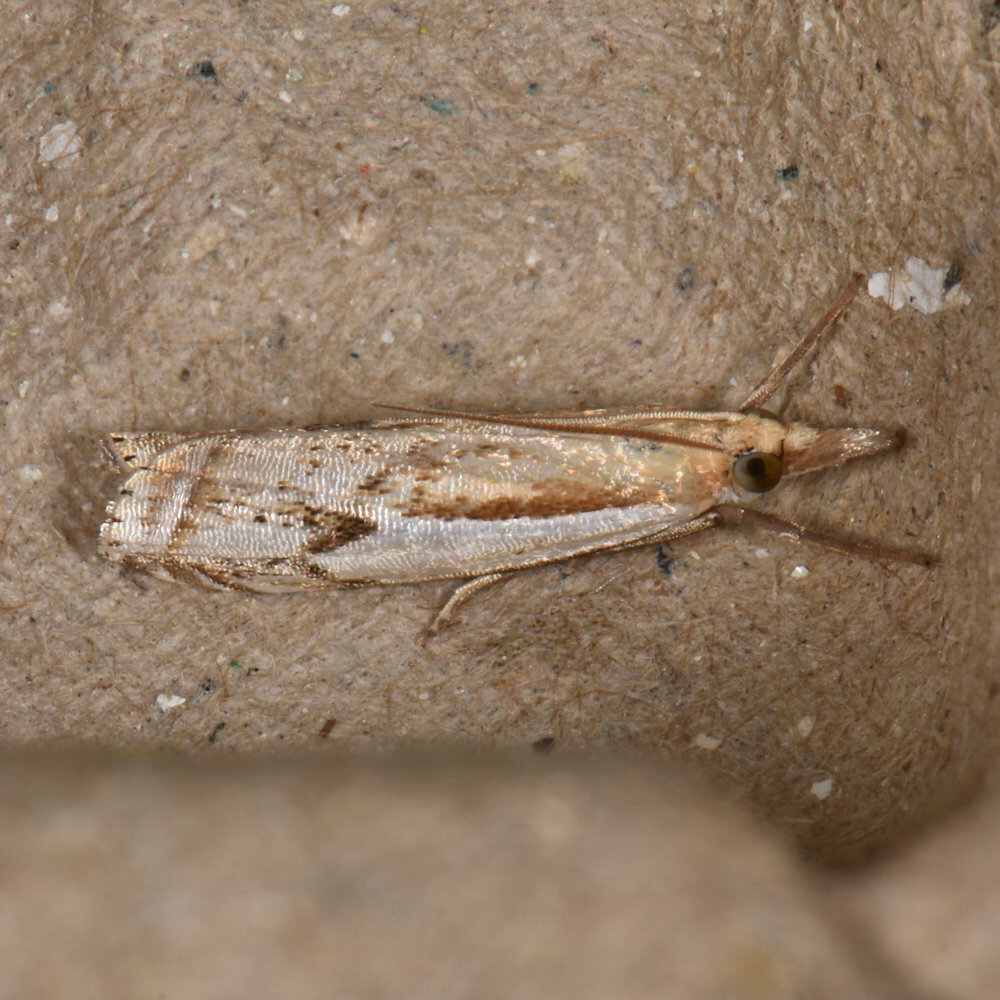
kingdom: Animalia
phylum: Arthropoda
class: Insecta
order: Lepidoptera
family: Crambidae
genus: Crambus
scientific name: Crambus agitatellus
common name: Double-banded grass-veneer
